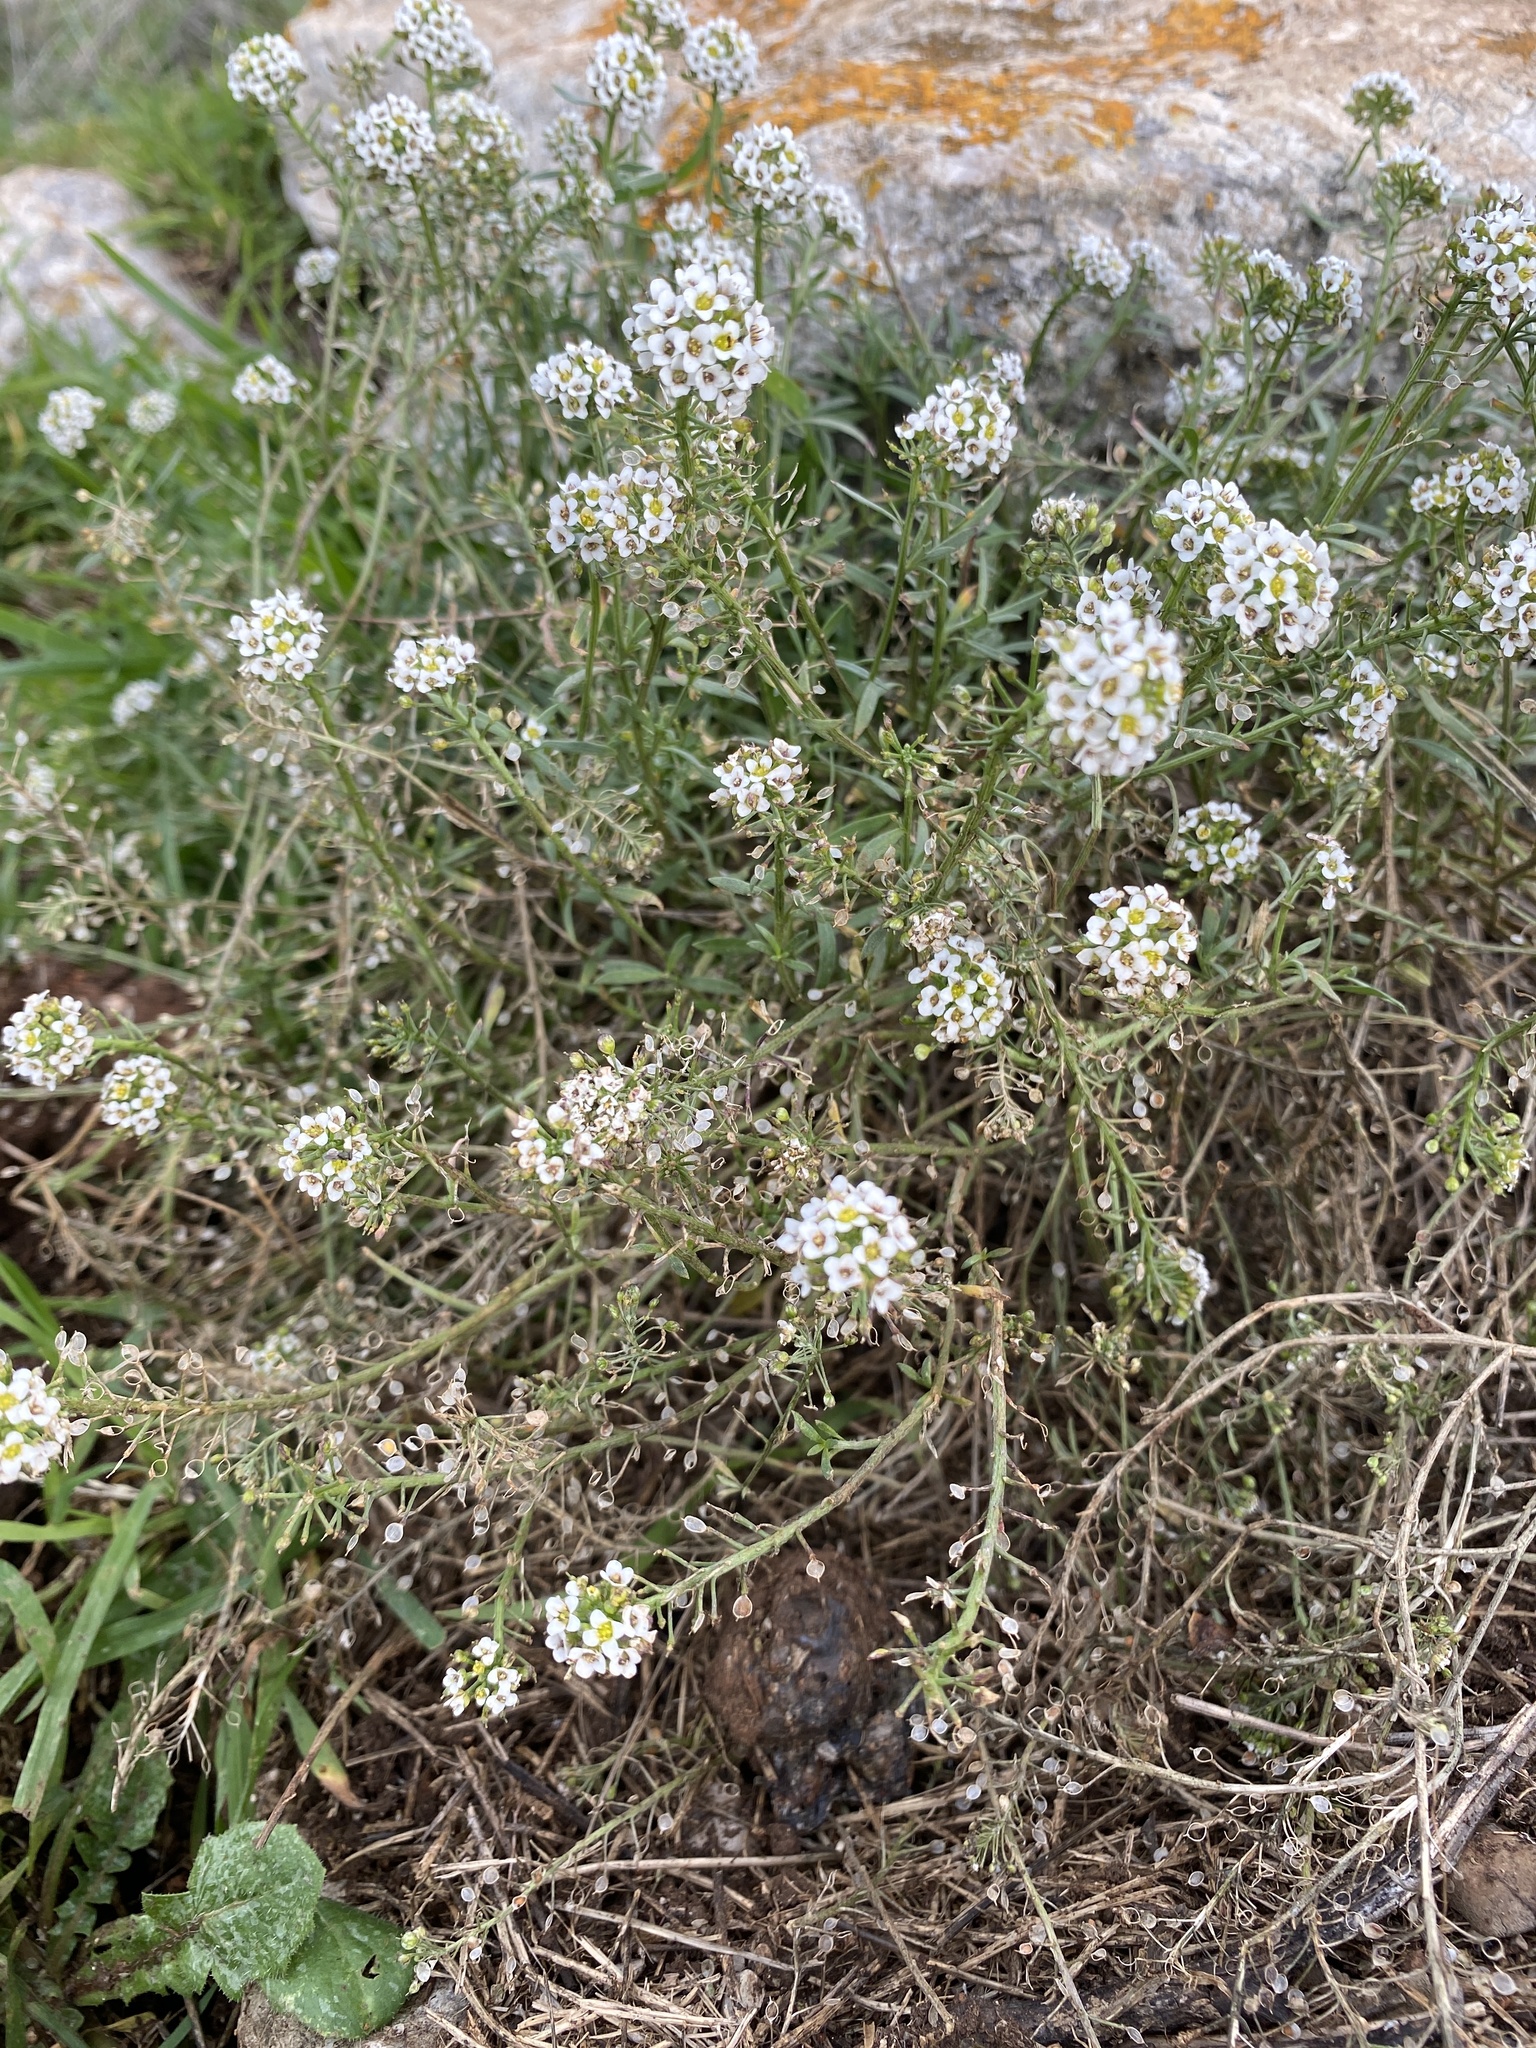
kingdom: Plantae
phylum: Tracheophyta
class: Magnoliopsida
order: Brassicales
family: Brassicaceae
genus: Lobularia
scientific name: Lobularia maritima
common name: Sweet alison
